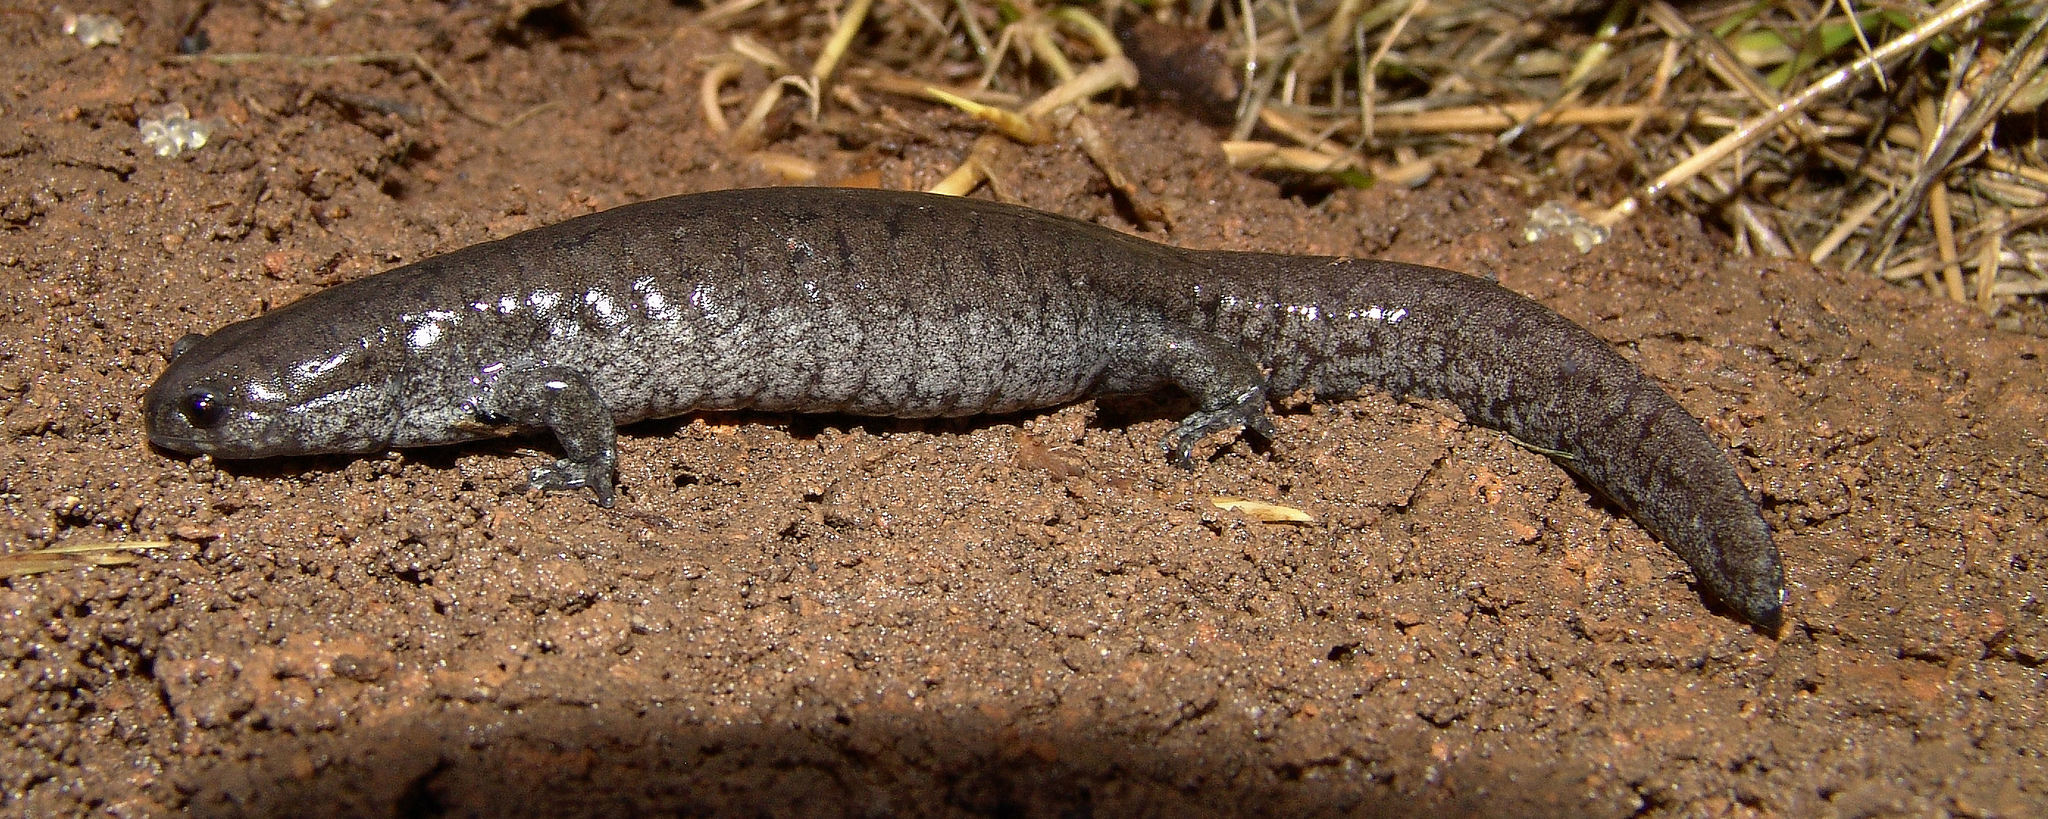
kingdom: Animalia
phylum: Chordata
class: Amphibia
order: Caudata
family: Ambystomatidae
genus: Ambystoma
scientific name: Ambystoma texanum
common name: Small-mouth salamander
